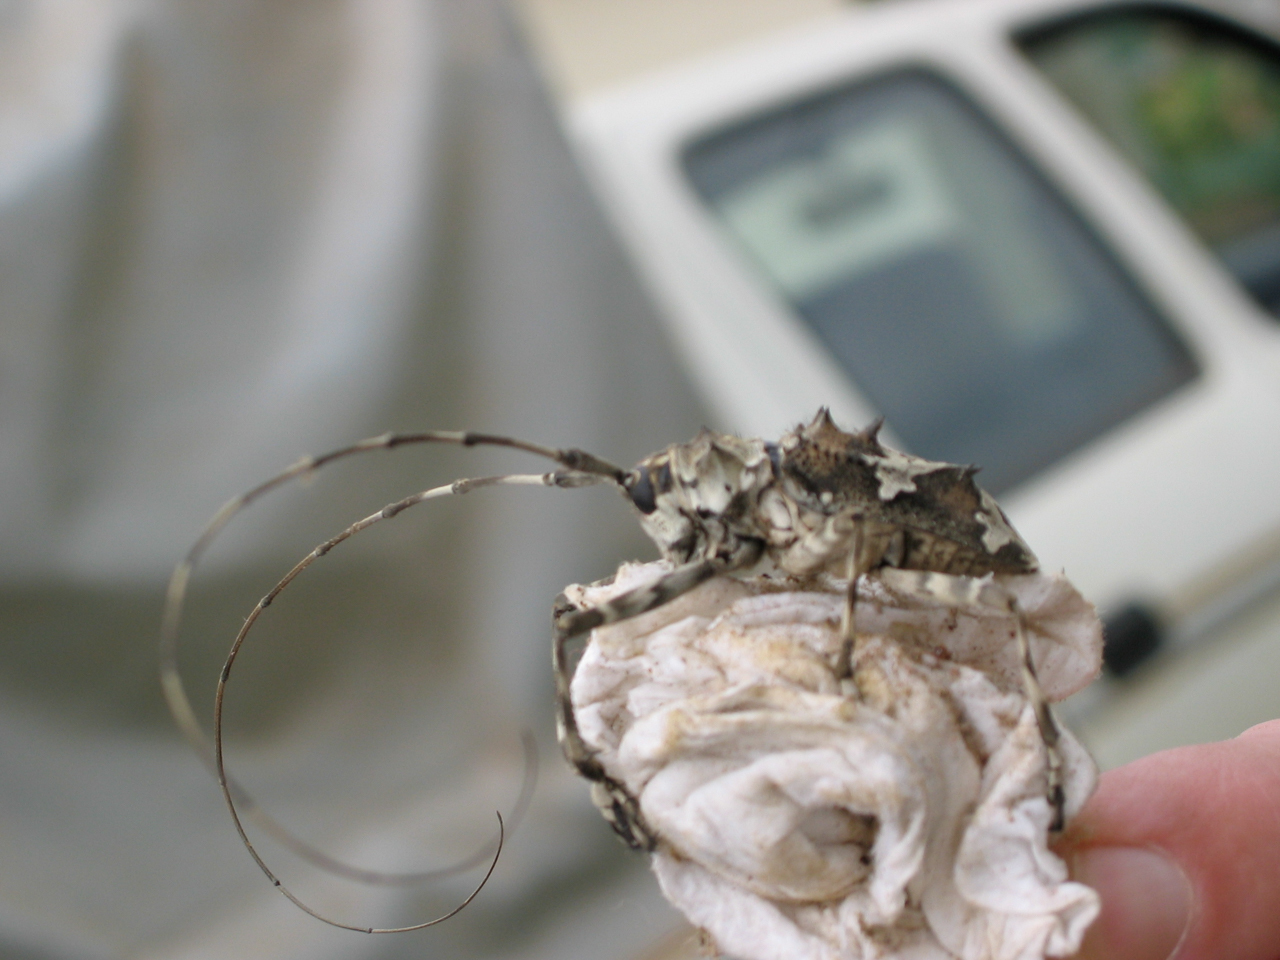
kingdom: Animalia
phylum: Arthropoda
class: Insecta
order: Coleoptera
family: Cerambycidae
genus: Ancylonotus
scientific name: Ancylonotus tribulus
